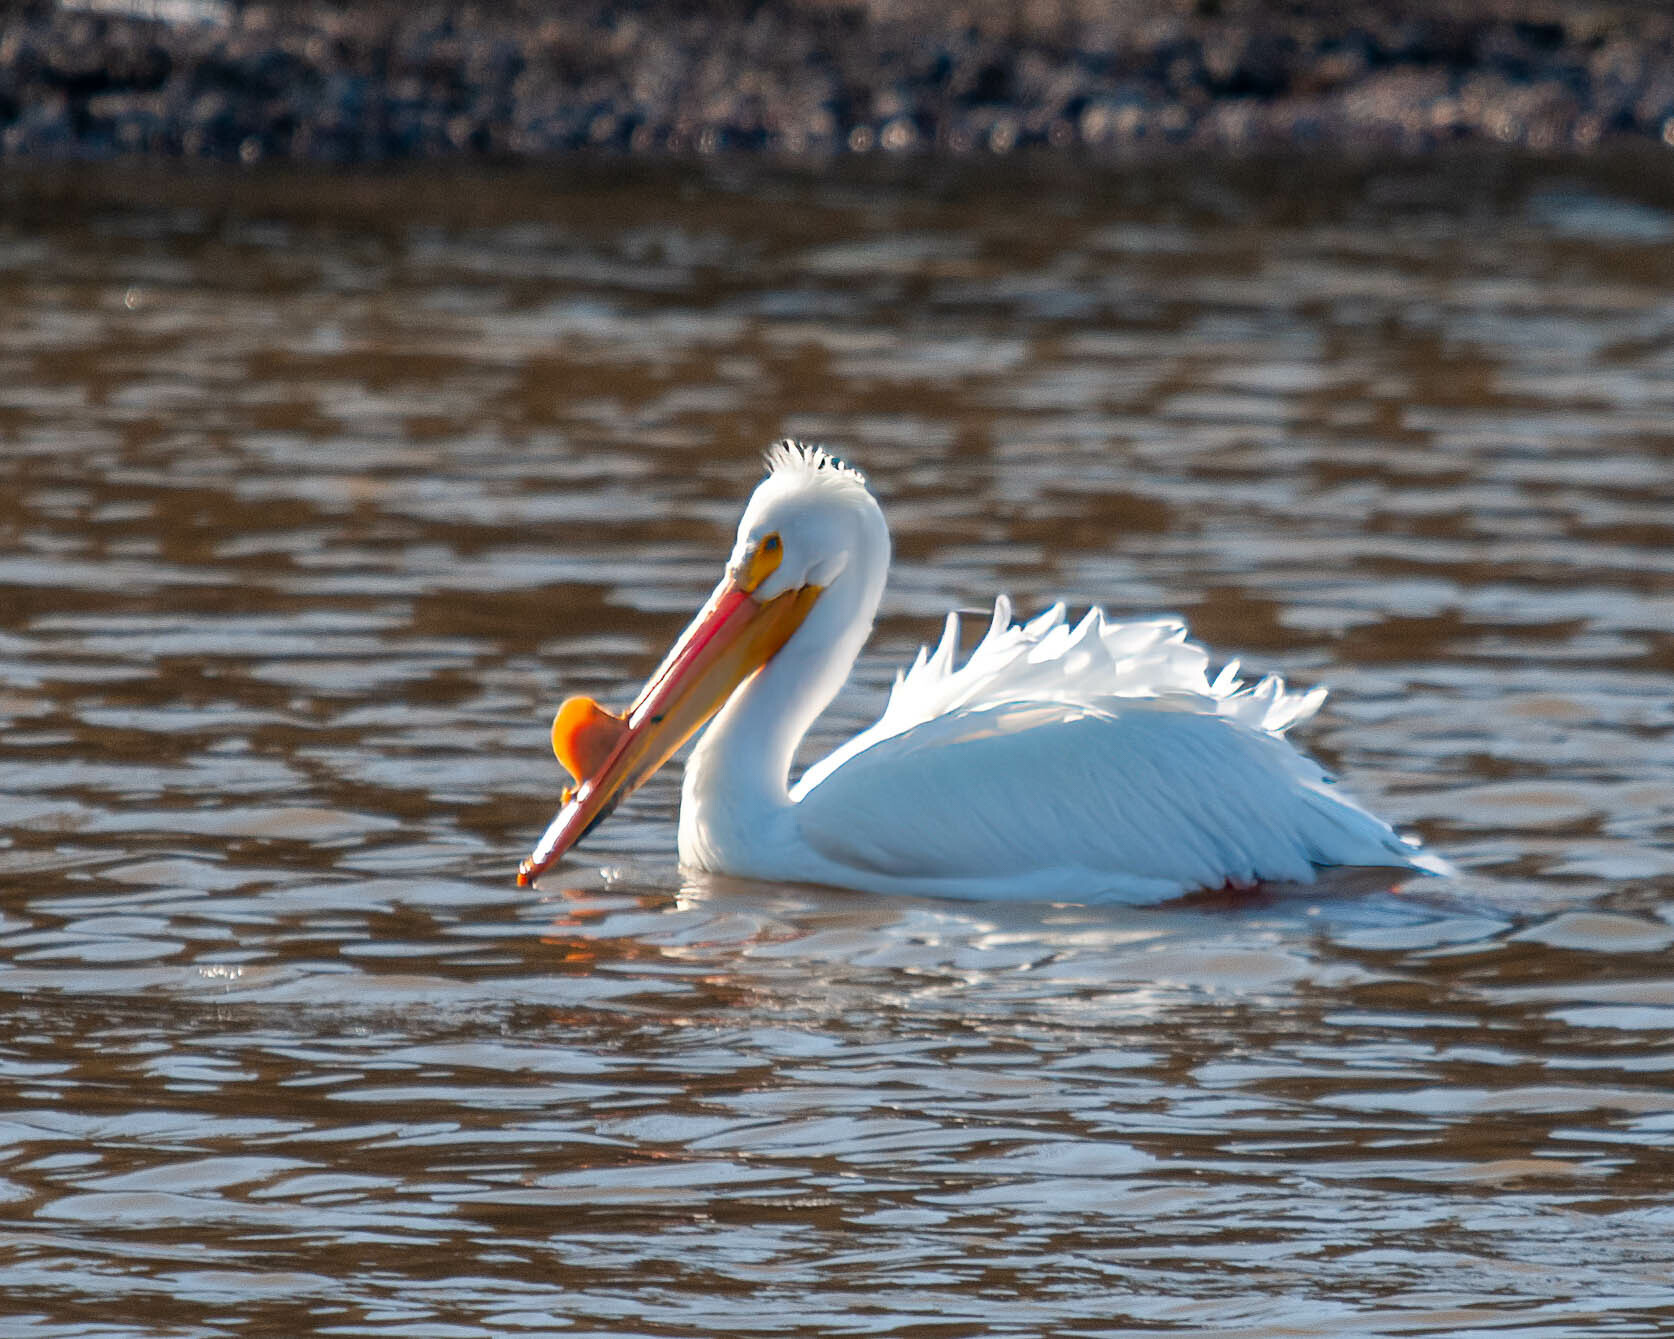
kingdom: Animalia
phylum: Chordata
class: Aves
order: Pelecaniformes
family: Pelecanidae
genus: Pelecanus
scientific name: Pelecanus erythrorhynchos
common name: American white pelican
